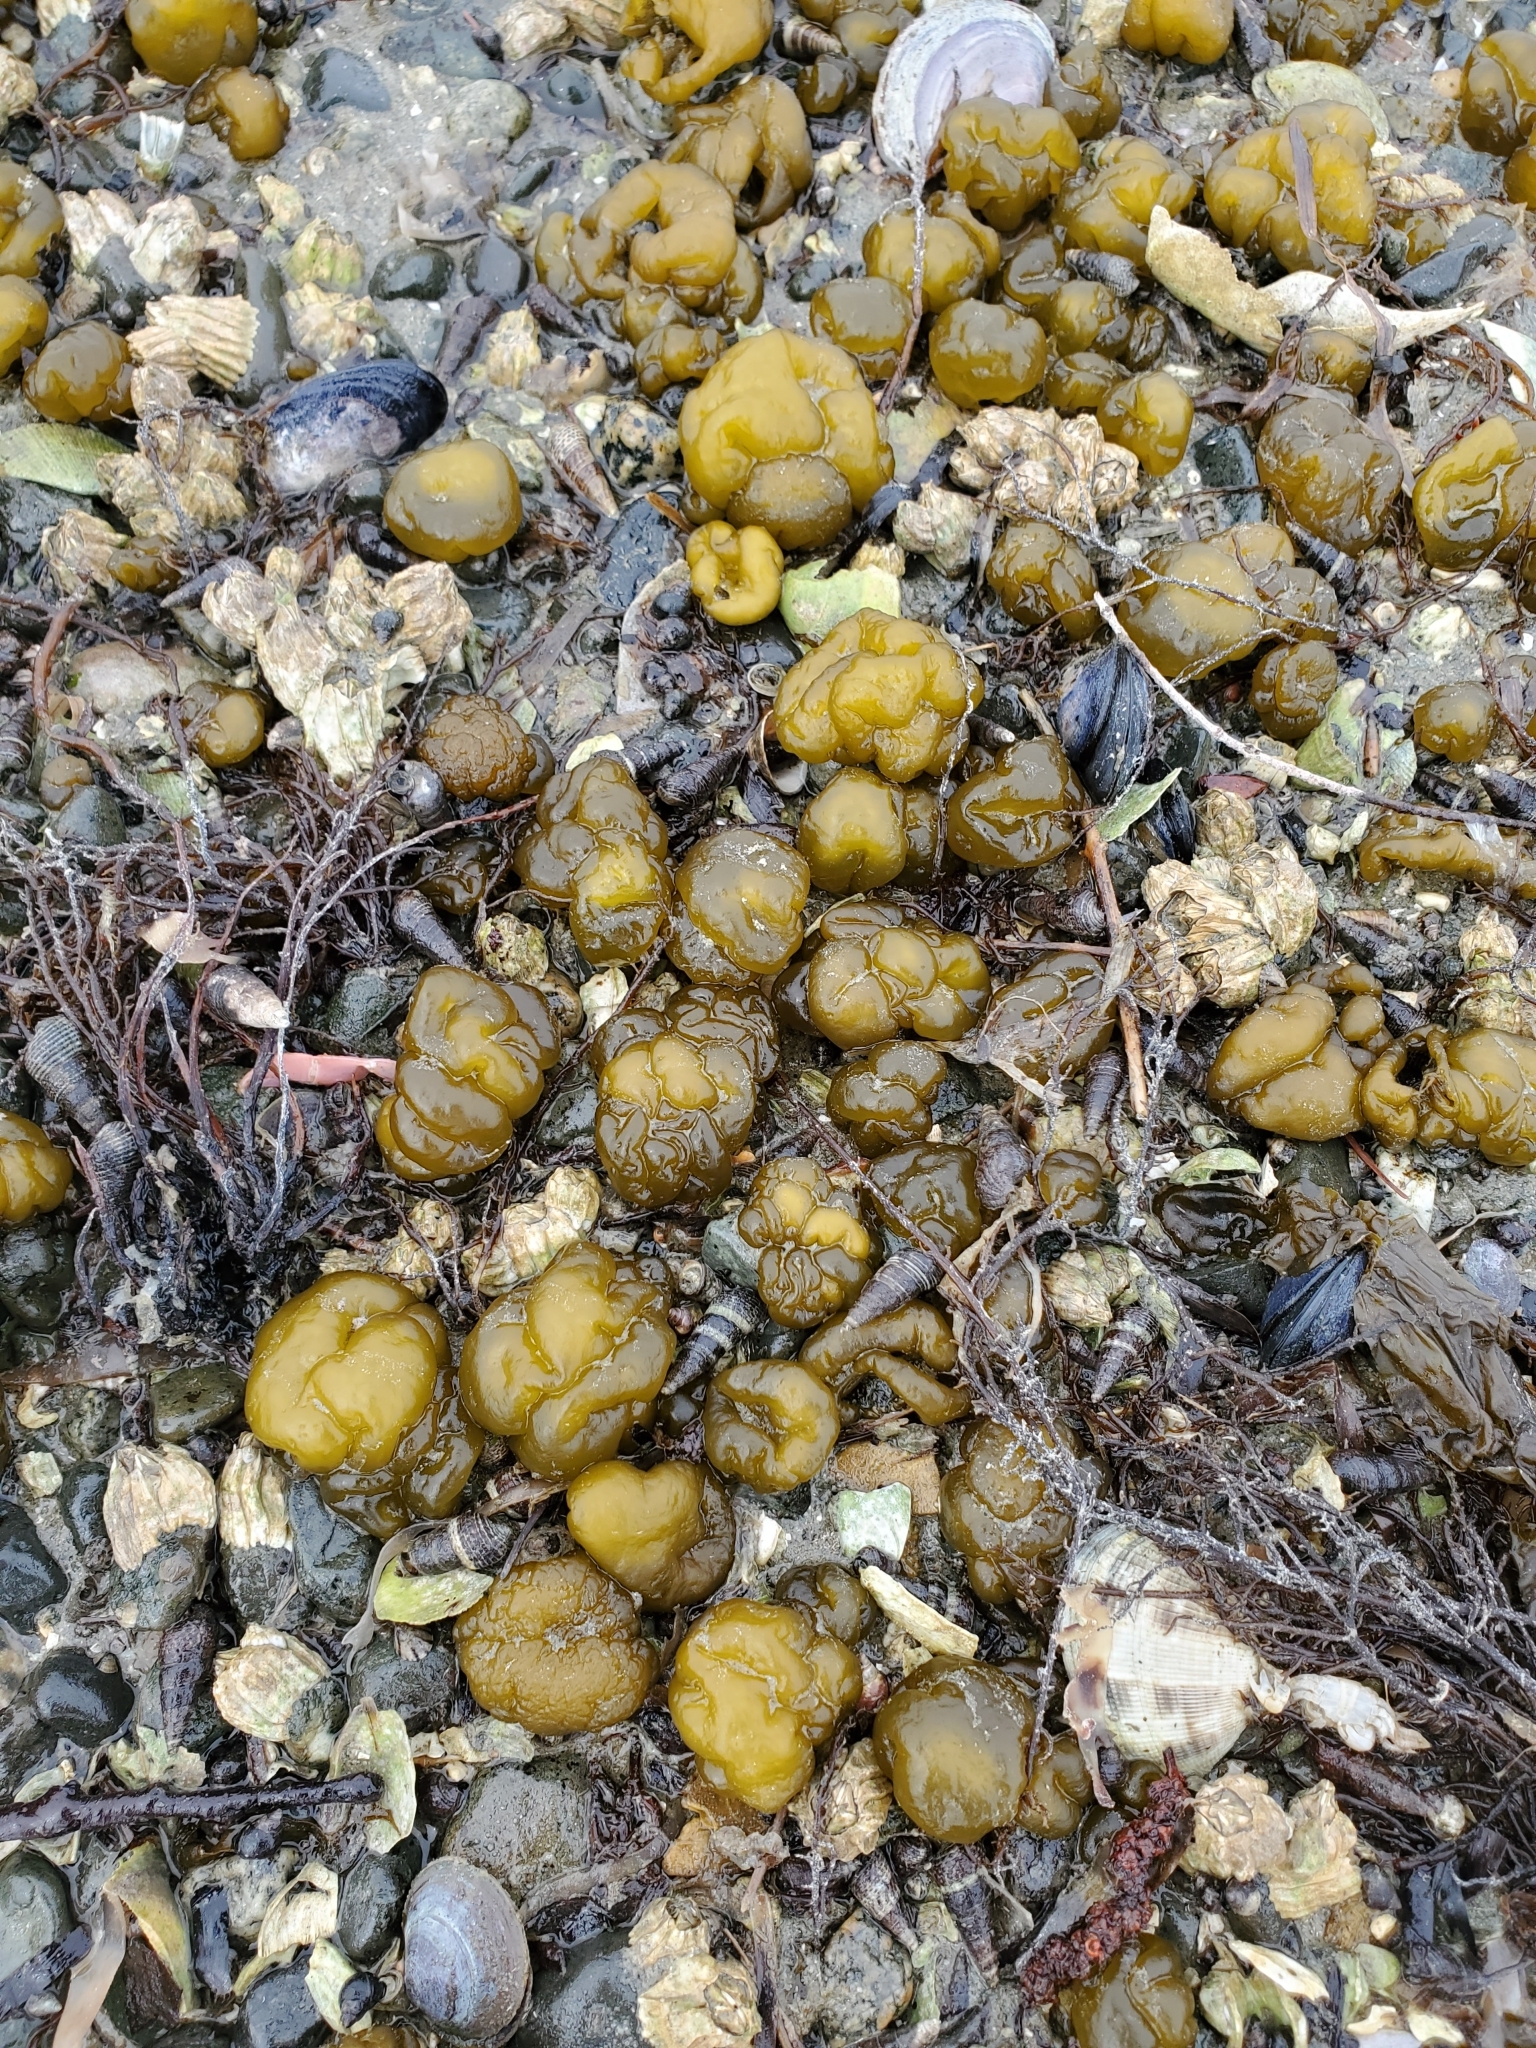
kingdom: Chromista
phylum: Ochrophyta
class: Phaeophyceae
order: Ectocarpales
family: Chordariaceae
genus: Leathesia
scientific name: Leathesia marina
